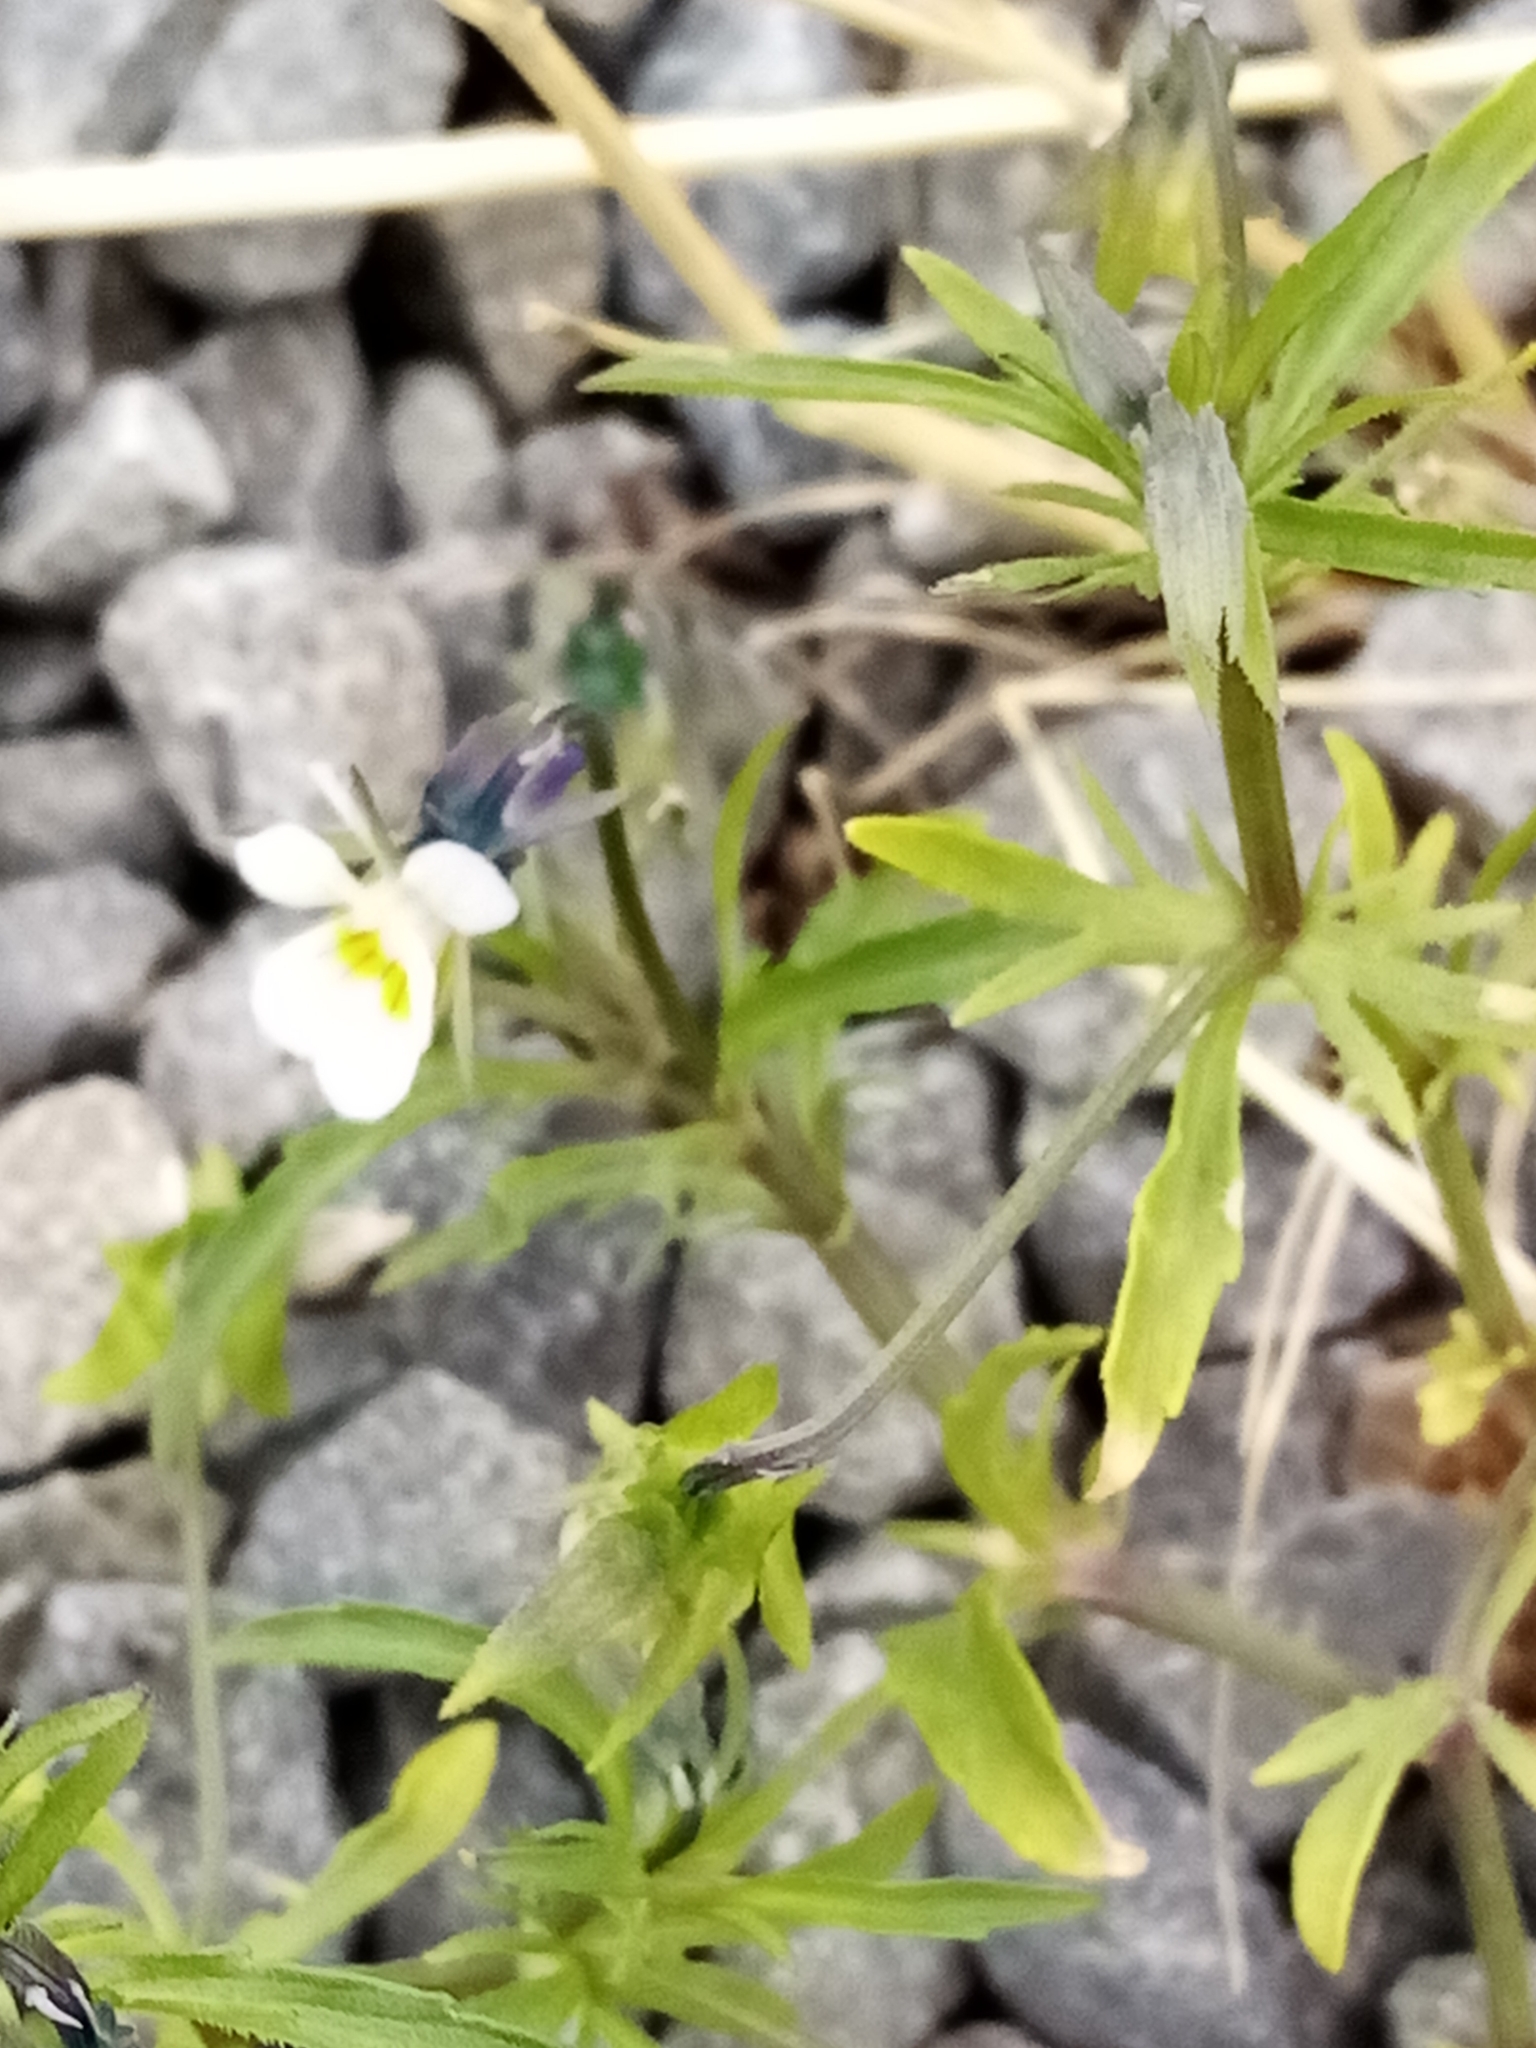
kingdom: Plantae
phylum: Tracheophyta
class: Magnoliopsida
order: Malpighiales
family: Violaceae
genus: Viola
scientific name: Viola arvensis
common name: Field pansy
